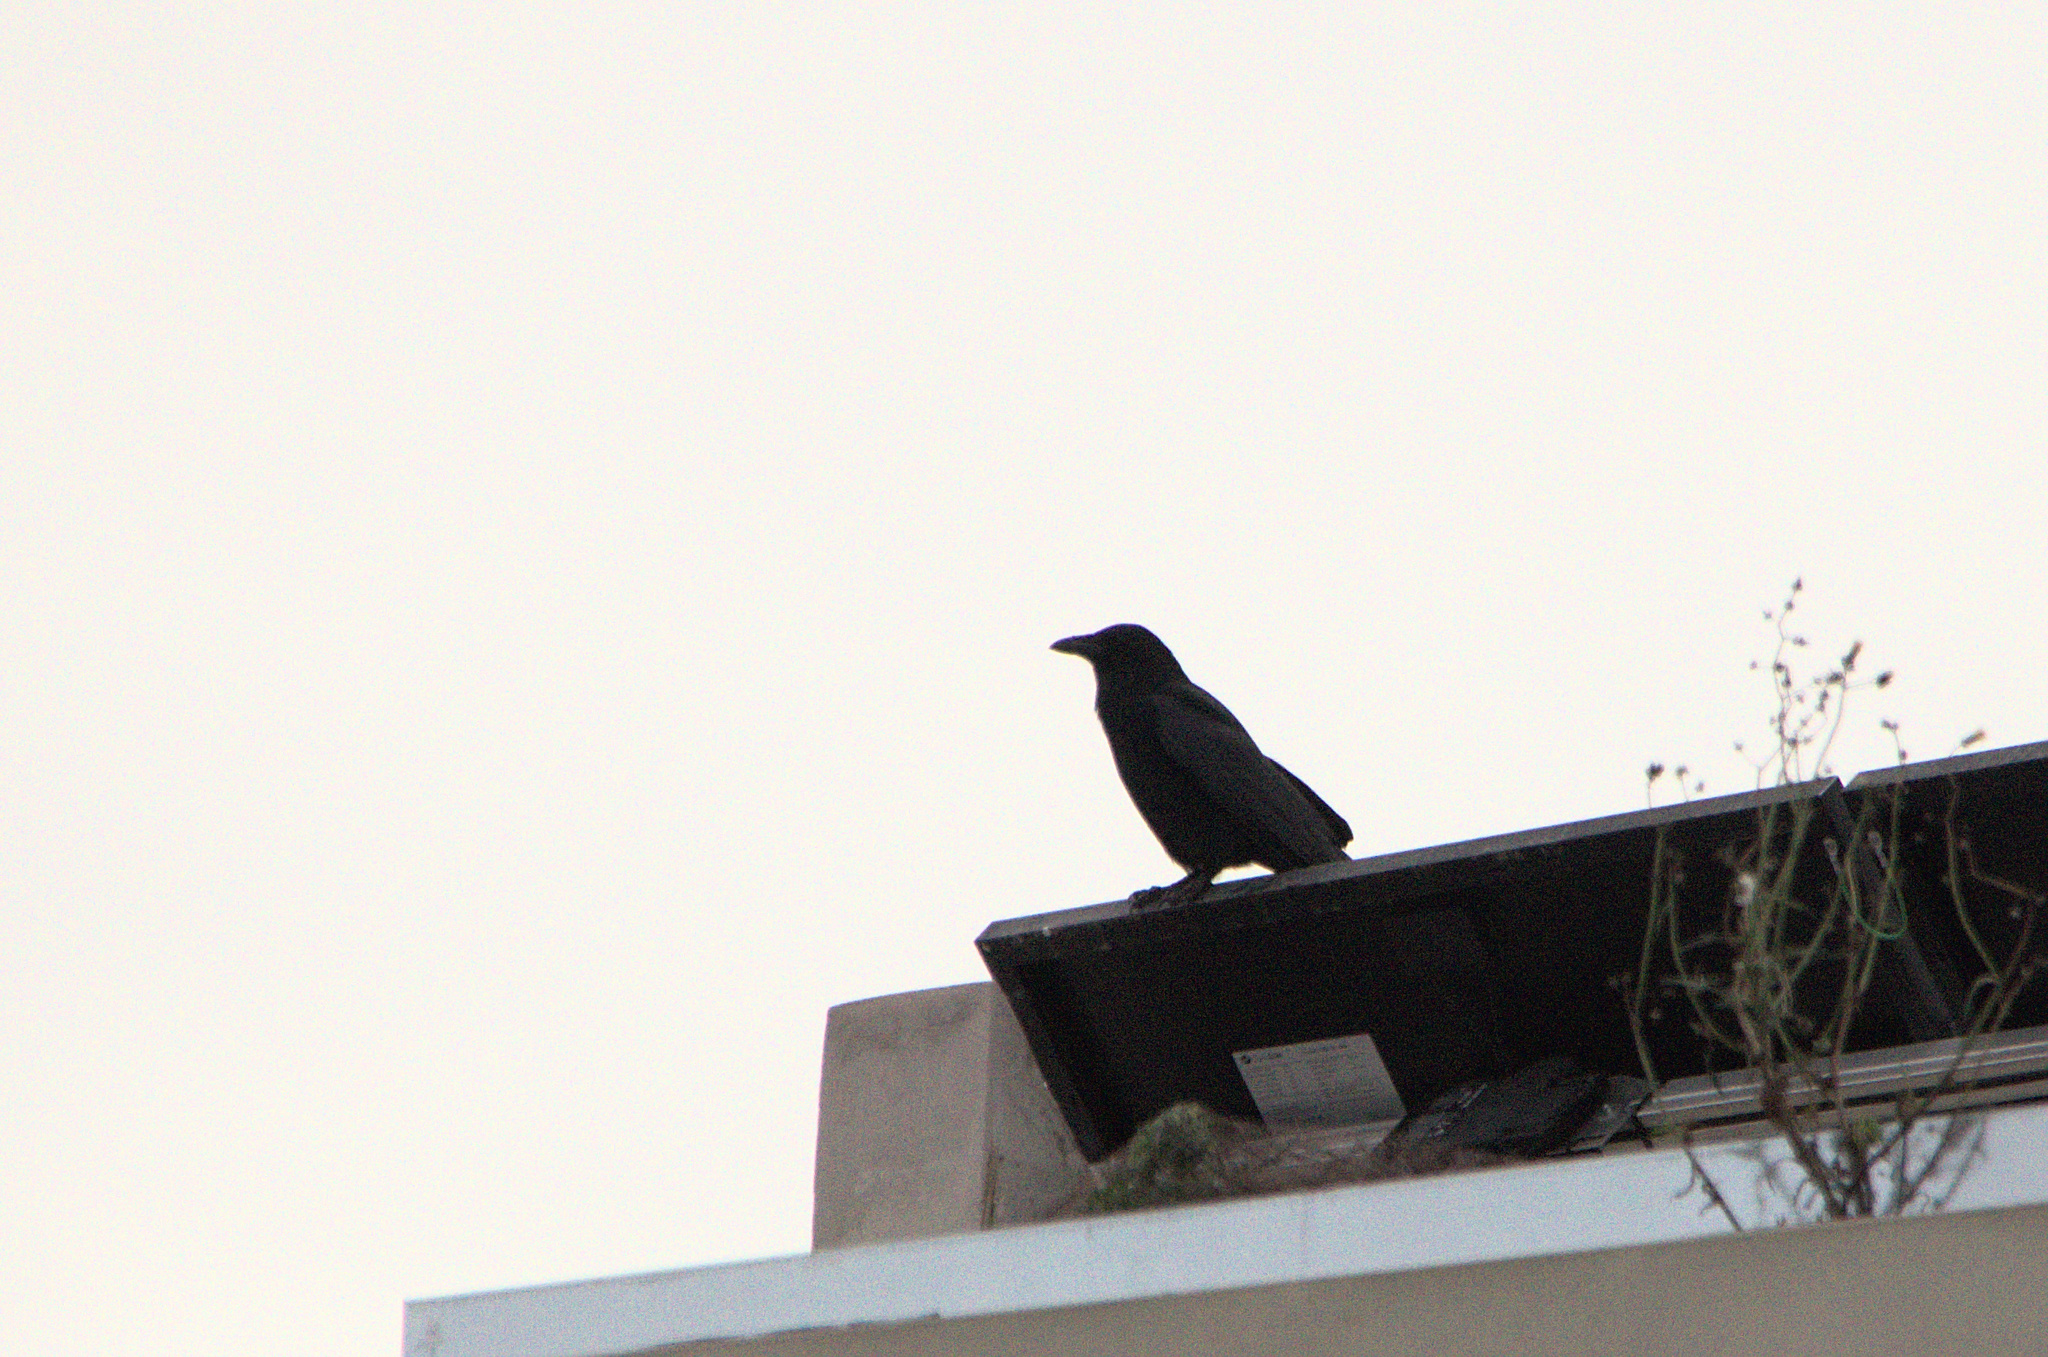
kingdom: Animalia
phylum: Chordata
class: Aves
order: Passeriformes
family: Corvidae
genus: Corvus
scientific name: Corvus corone
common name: Carrion crow
